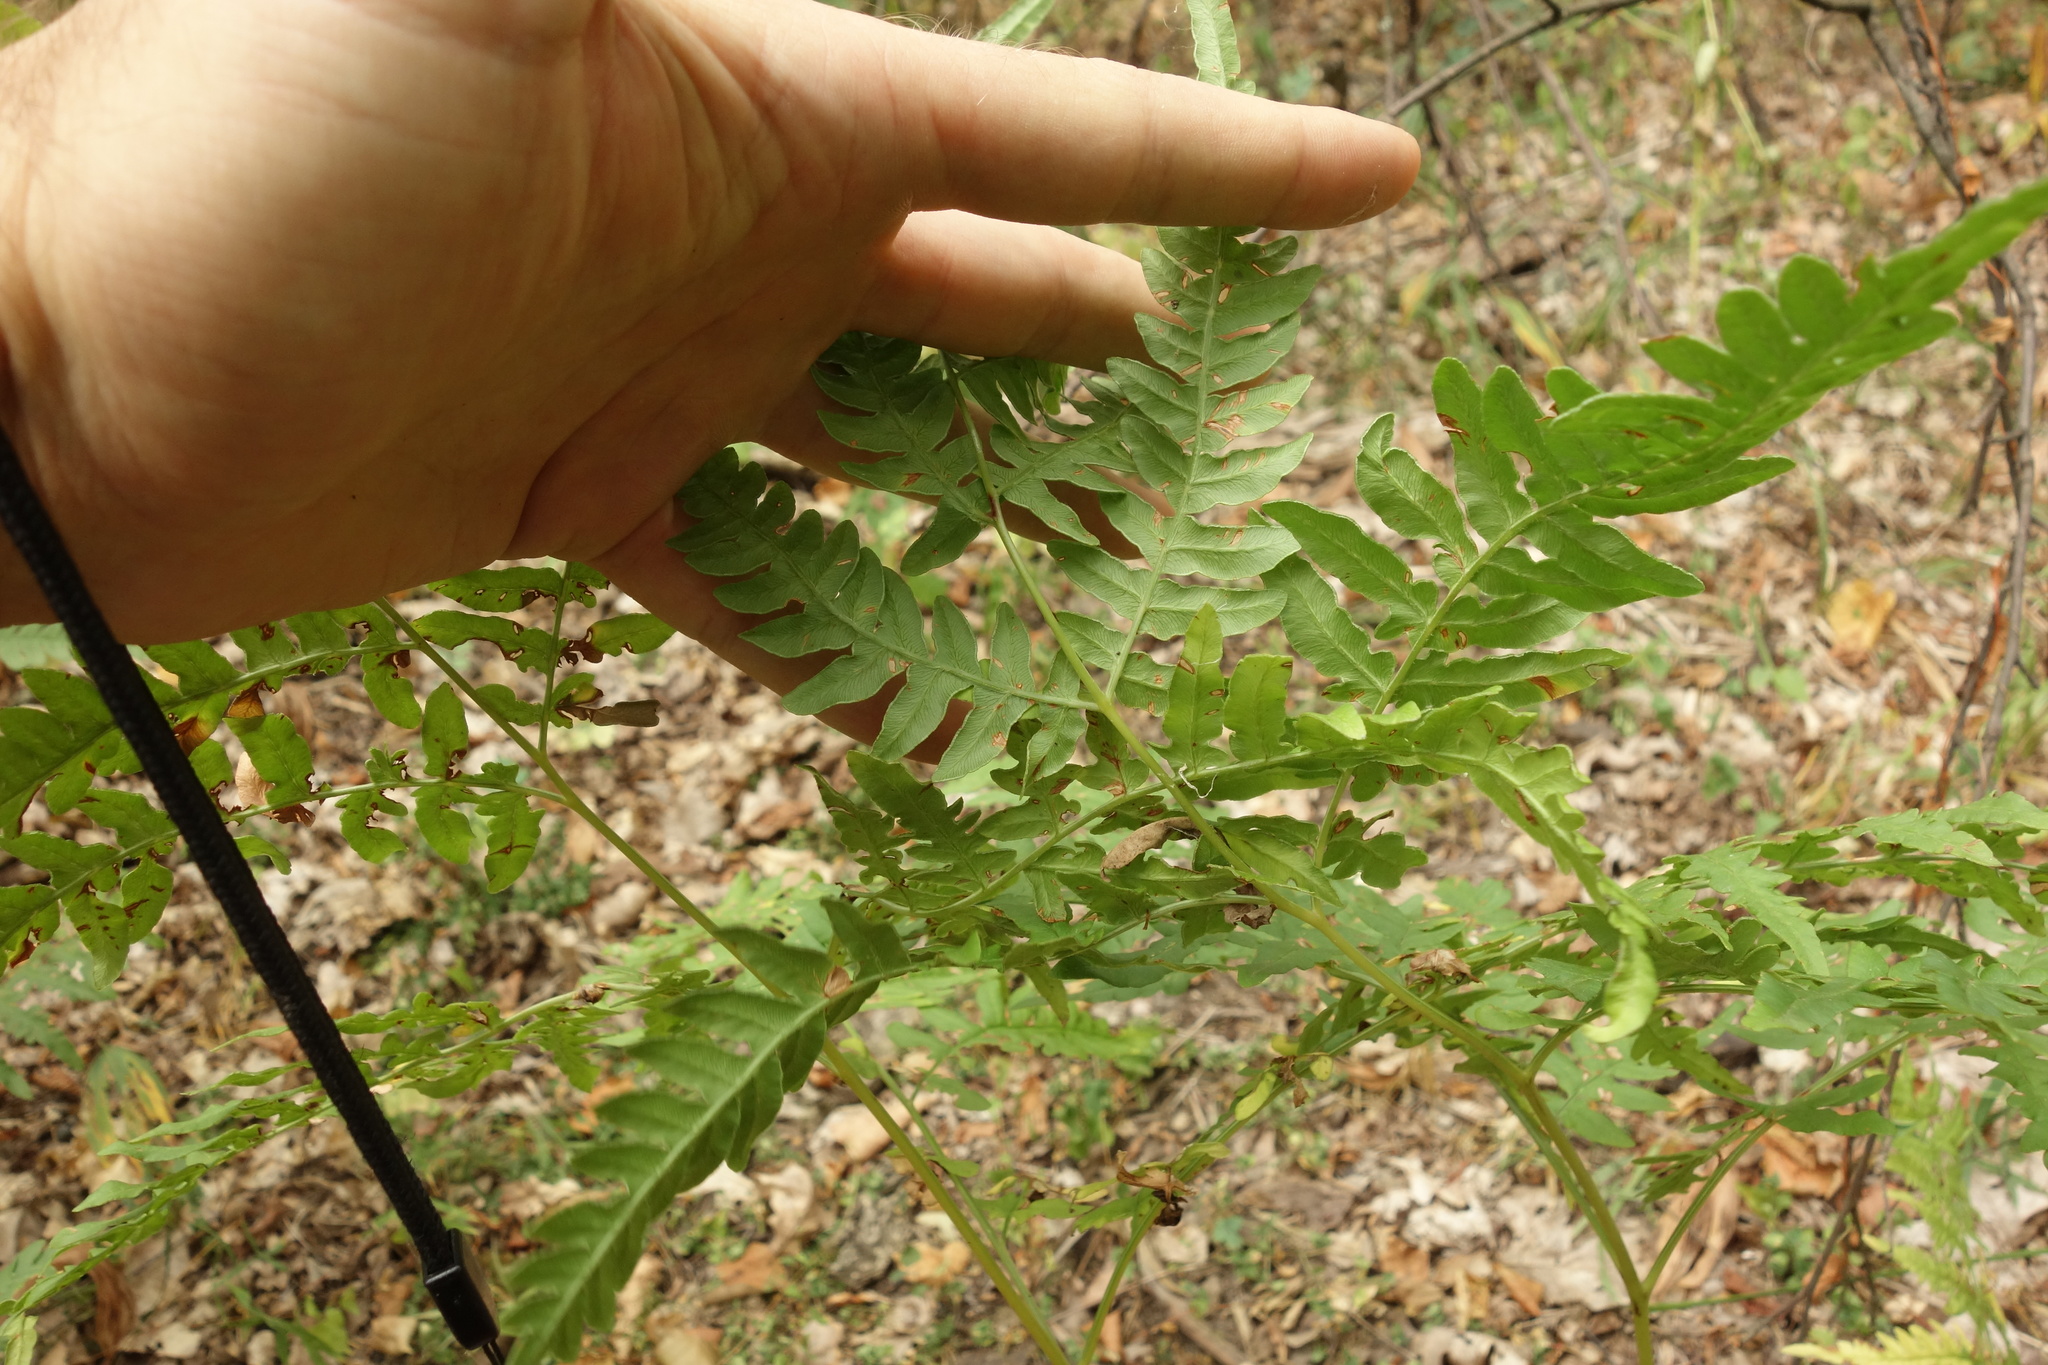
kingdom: Plantae
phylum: Tracheophyta
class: Polypodiopsida
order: Polypodiales
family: Dennstaedtiaceae
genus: Pteridium
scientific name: Pteridium aquilinum
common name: Bracken
